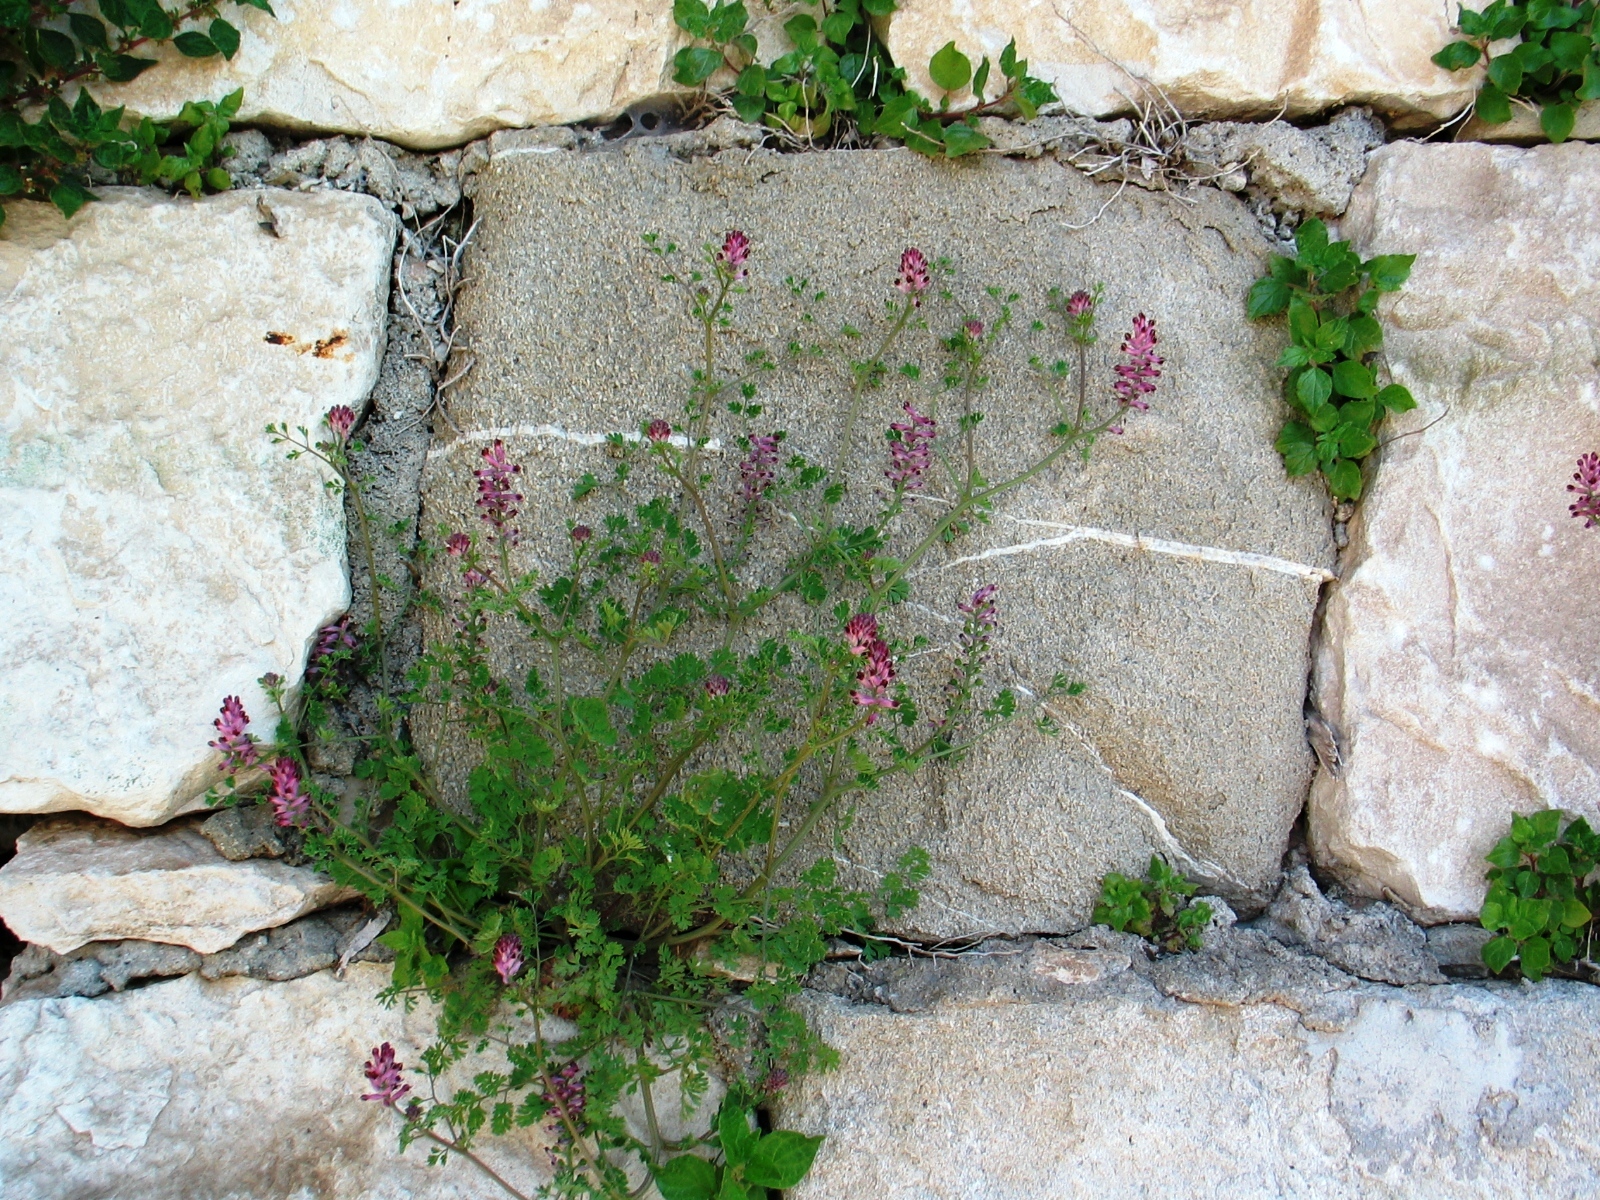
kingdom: Plantae
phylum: Tracheophyta
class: Magnoliopsida
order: Ranunculales
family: Papaveraceae
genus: Fumaria
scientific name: Fumaria officinalis
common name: Common fumitory
